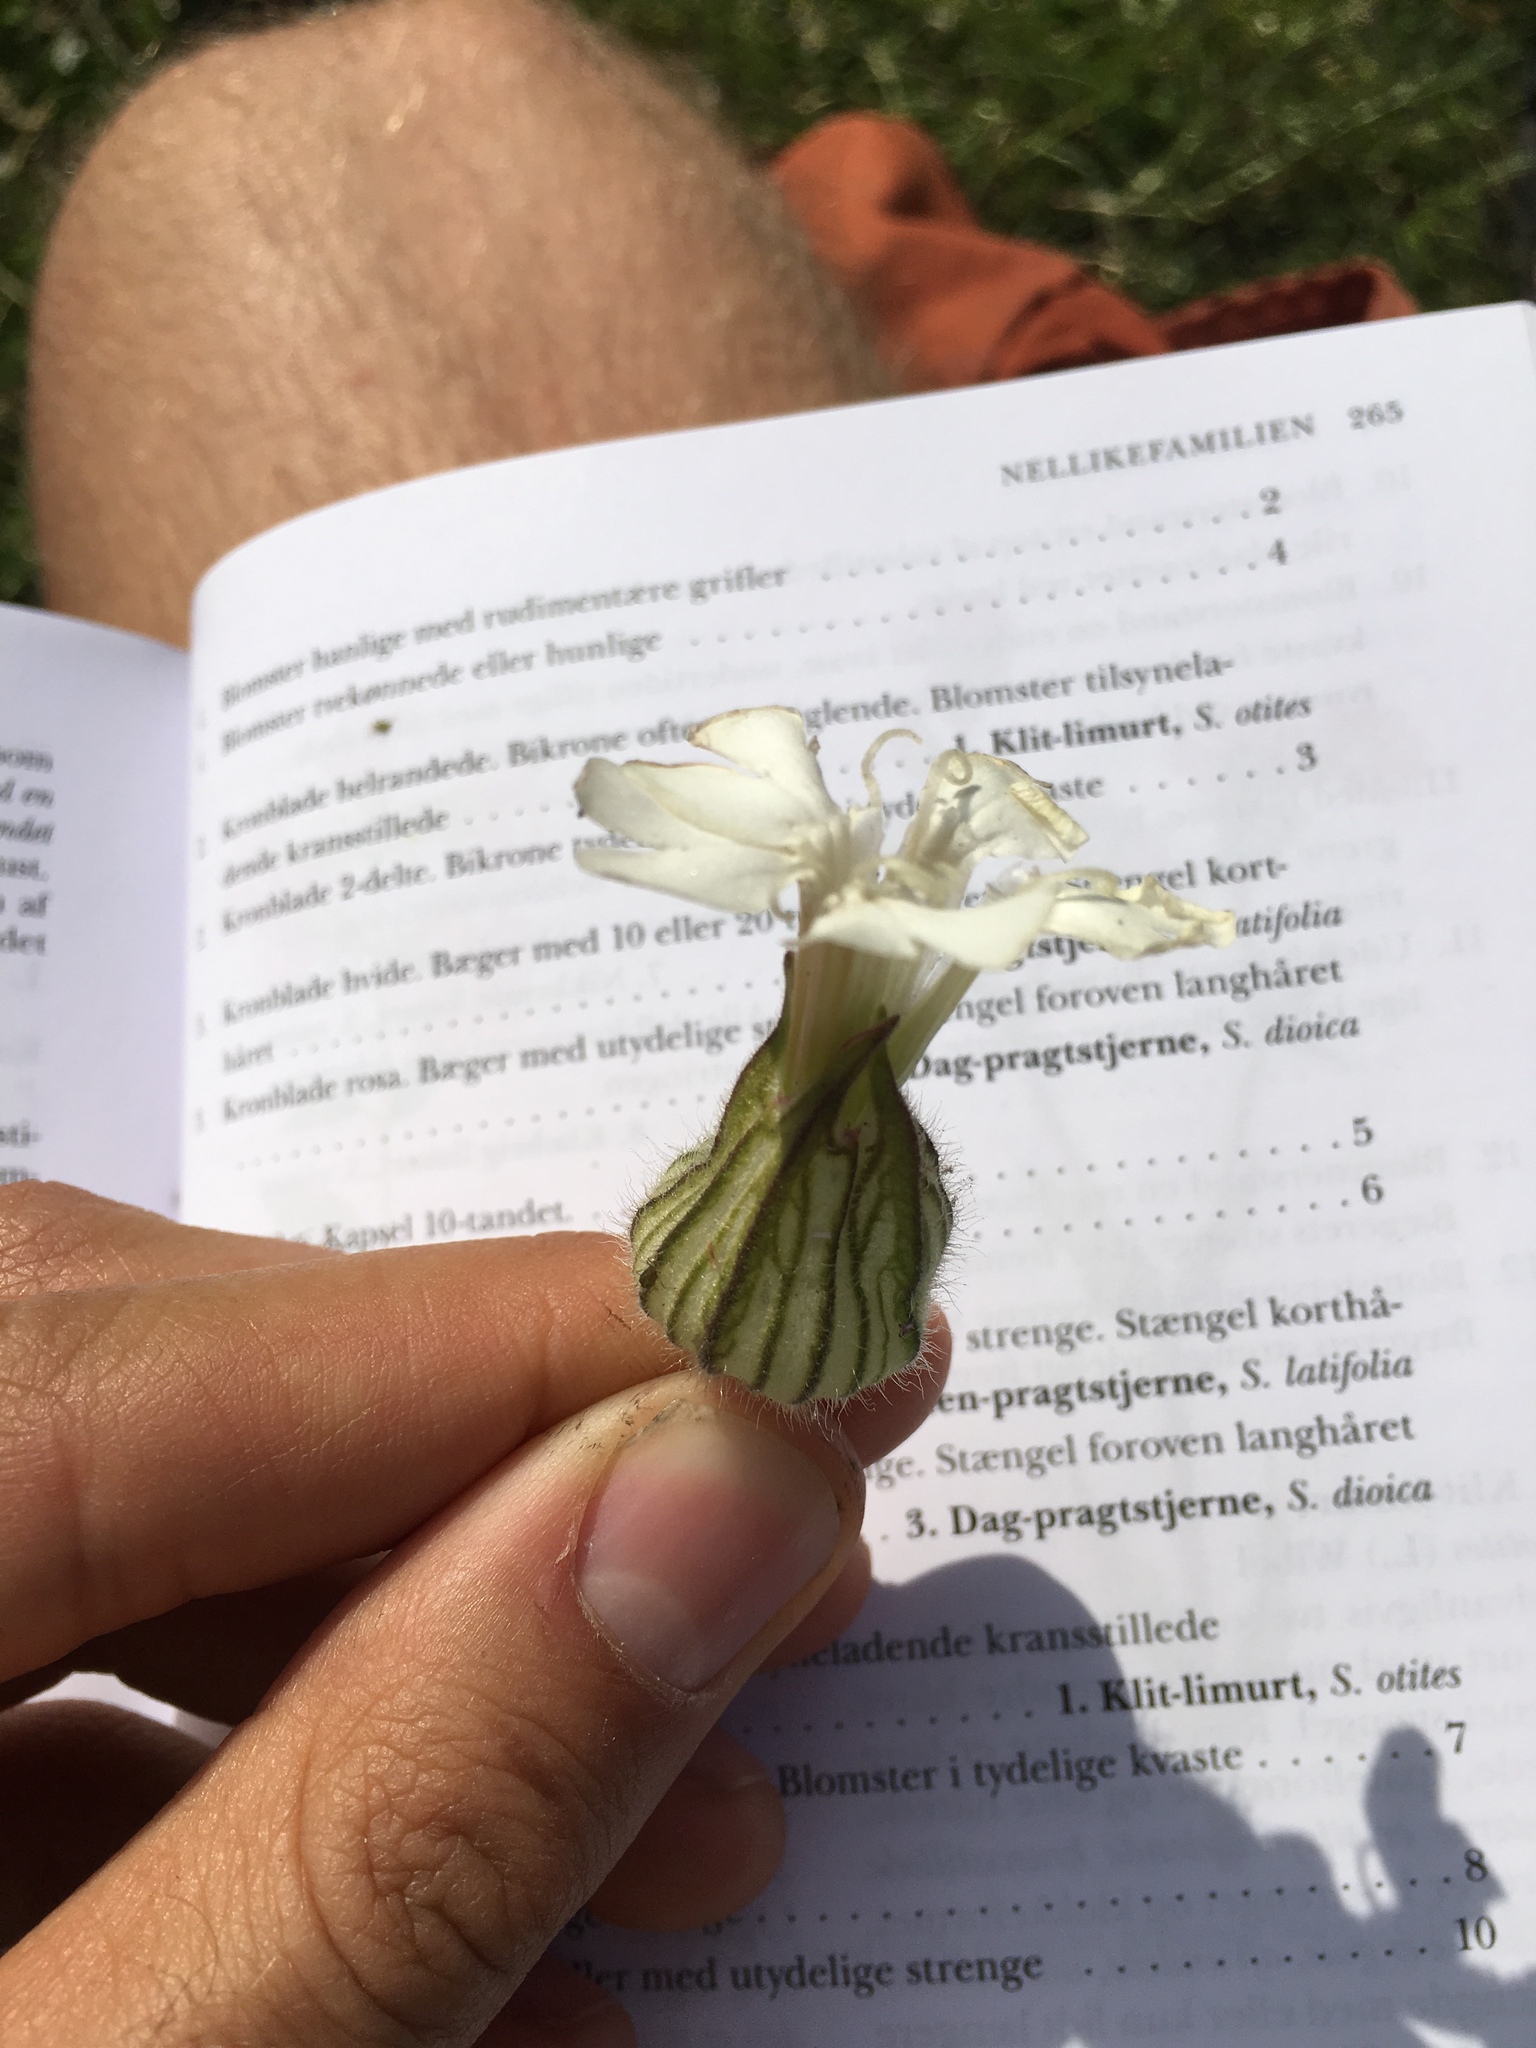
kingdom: Plantae
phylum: Tracheophyta
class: Magnoliopsida
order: Caryophyllales
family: Caryophyllaceae
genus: Silene
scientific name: Silene latifolia
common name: White campion
